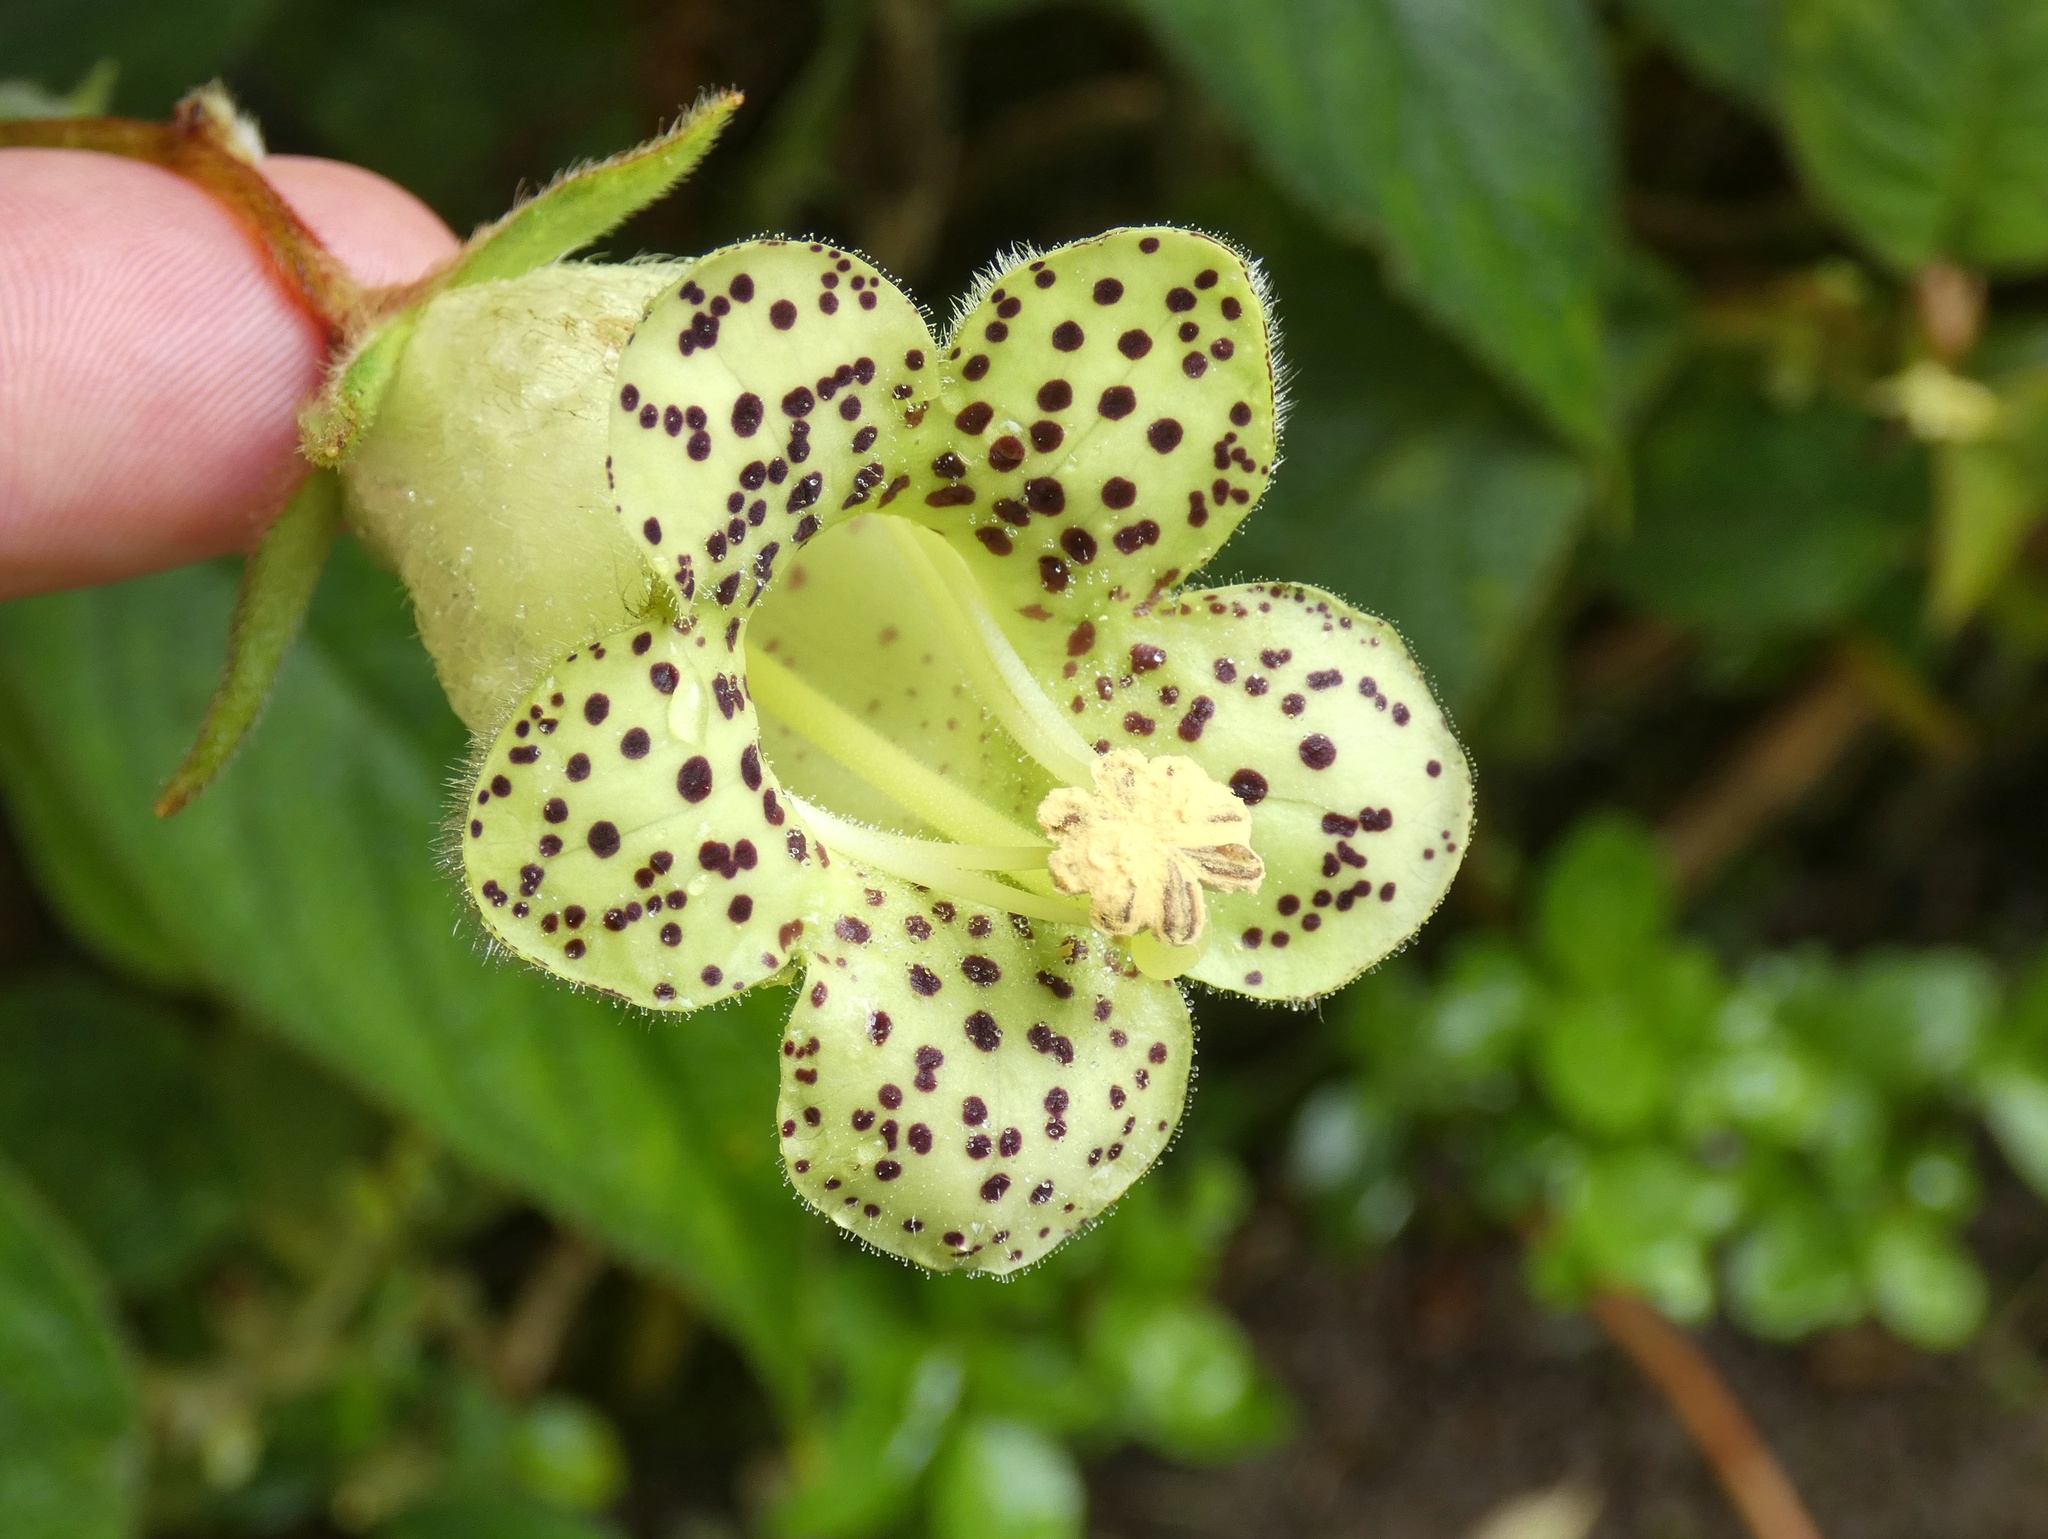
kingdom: Plantae
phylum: Tracheophyta
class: Magnoliopsida
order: Lamiales
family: Gesneriaceae
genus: Kohleria
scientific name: Kohleria tigridia
